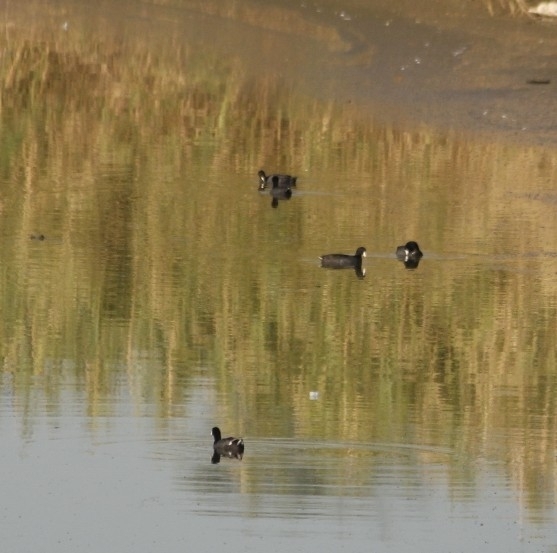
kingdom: Animalia
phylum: Chordata
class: Aves
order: Gruiformes
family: Rallidae
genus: Fulica
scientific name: Fulica americana
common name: American coot
